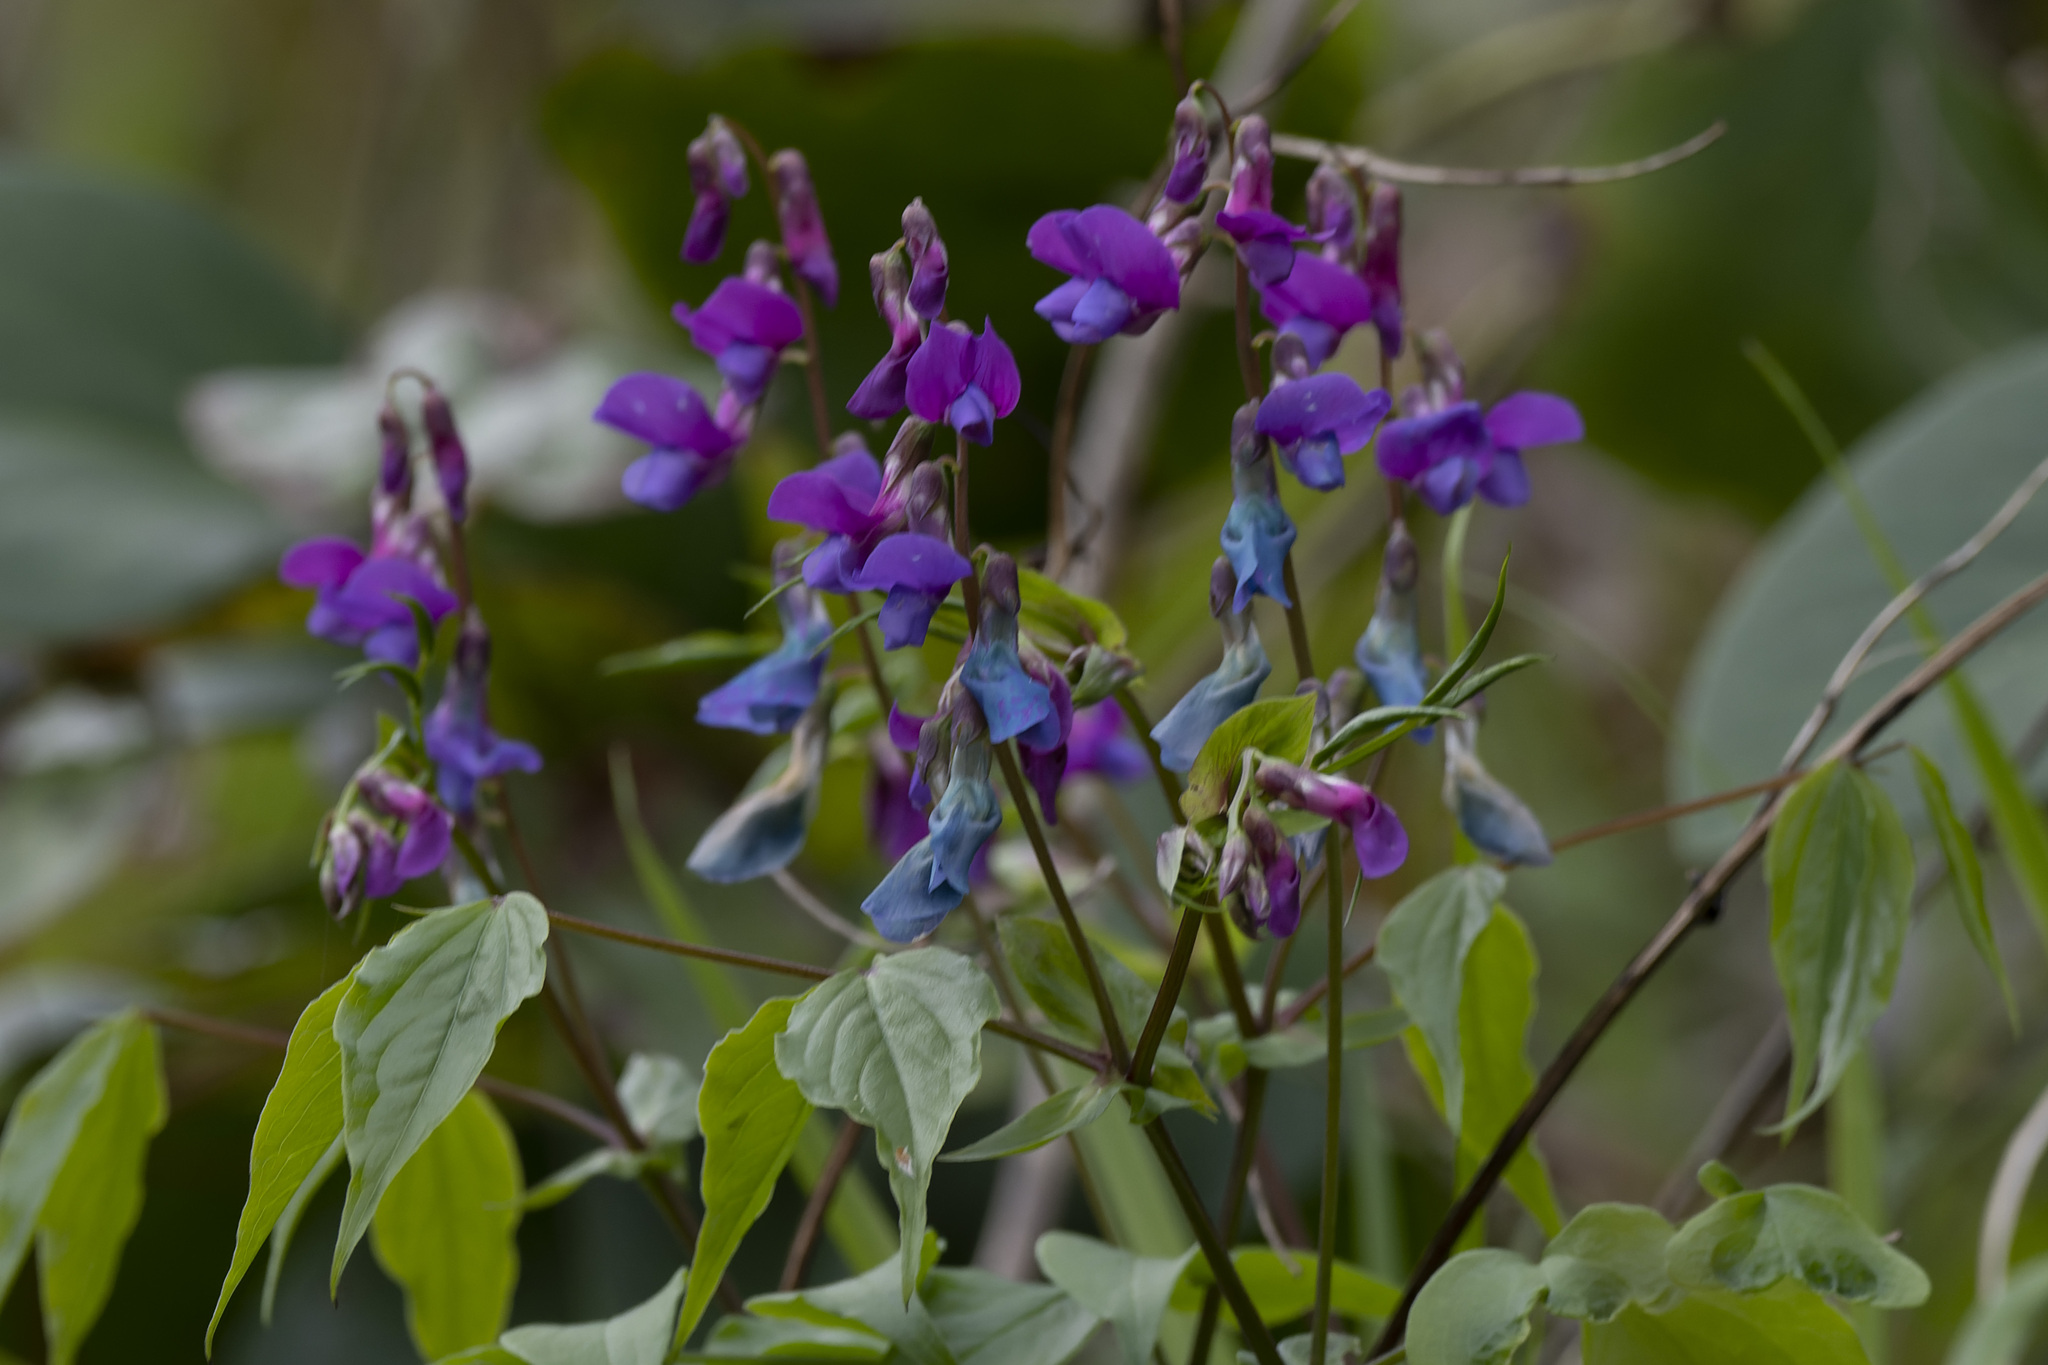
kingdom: Plantae
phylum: Tracheophyta
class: Magnoliopsida
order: Fabales
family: Fabaceae
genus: Lathyrus
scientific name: Lathyrus vernus
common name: Spring pea
